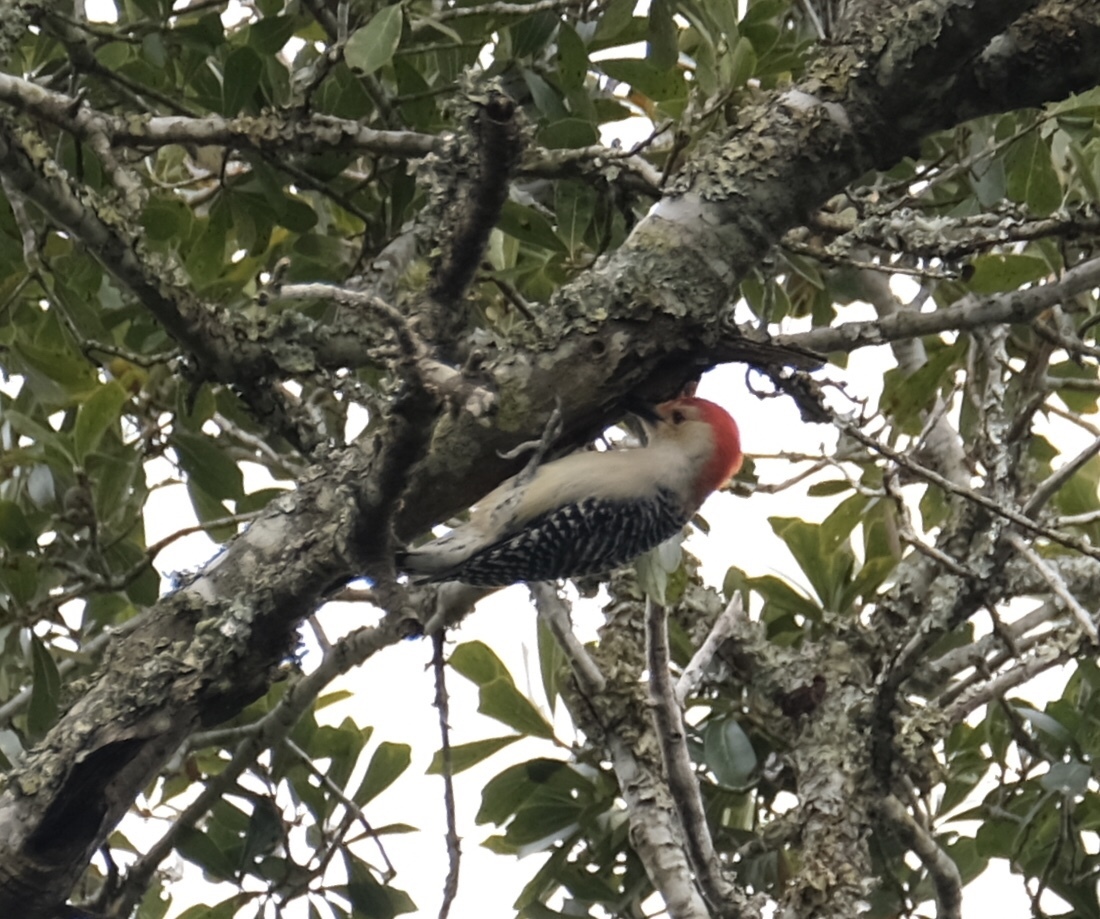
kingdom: Animalia
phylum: Chordata
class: Aves
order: Piciformes
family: Picidae
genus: Melanerpes
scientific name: Melanerpes carolinus
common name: Red-bellied woodpecker
